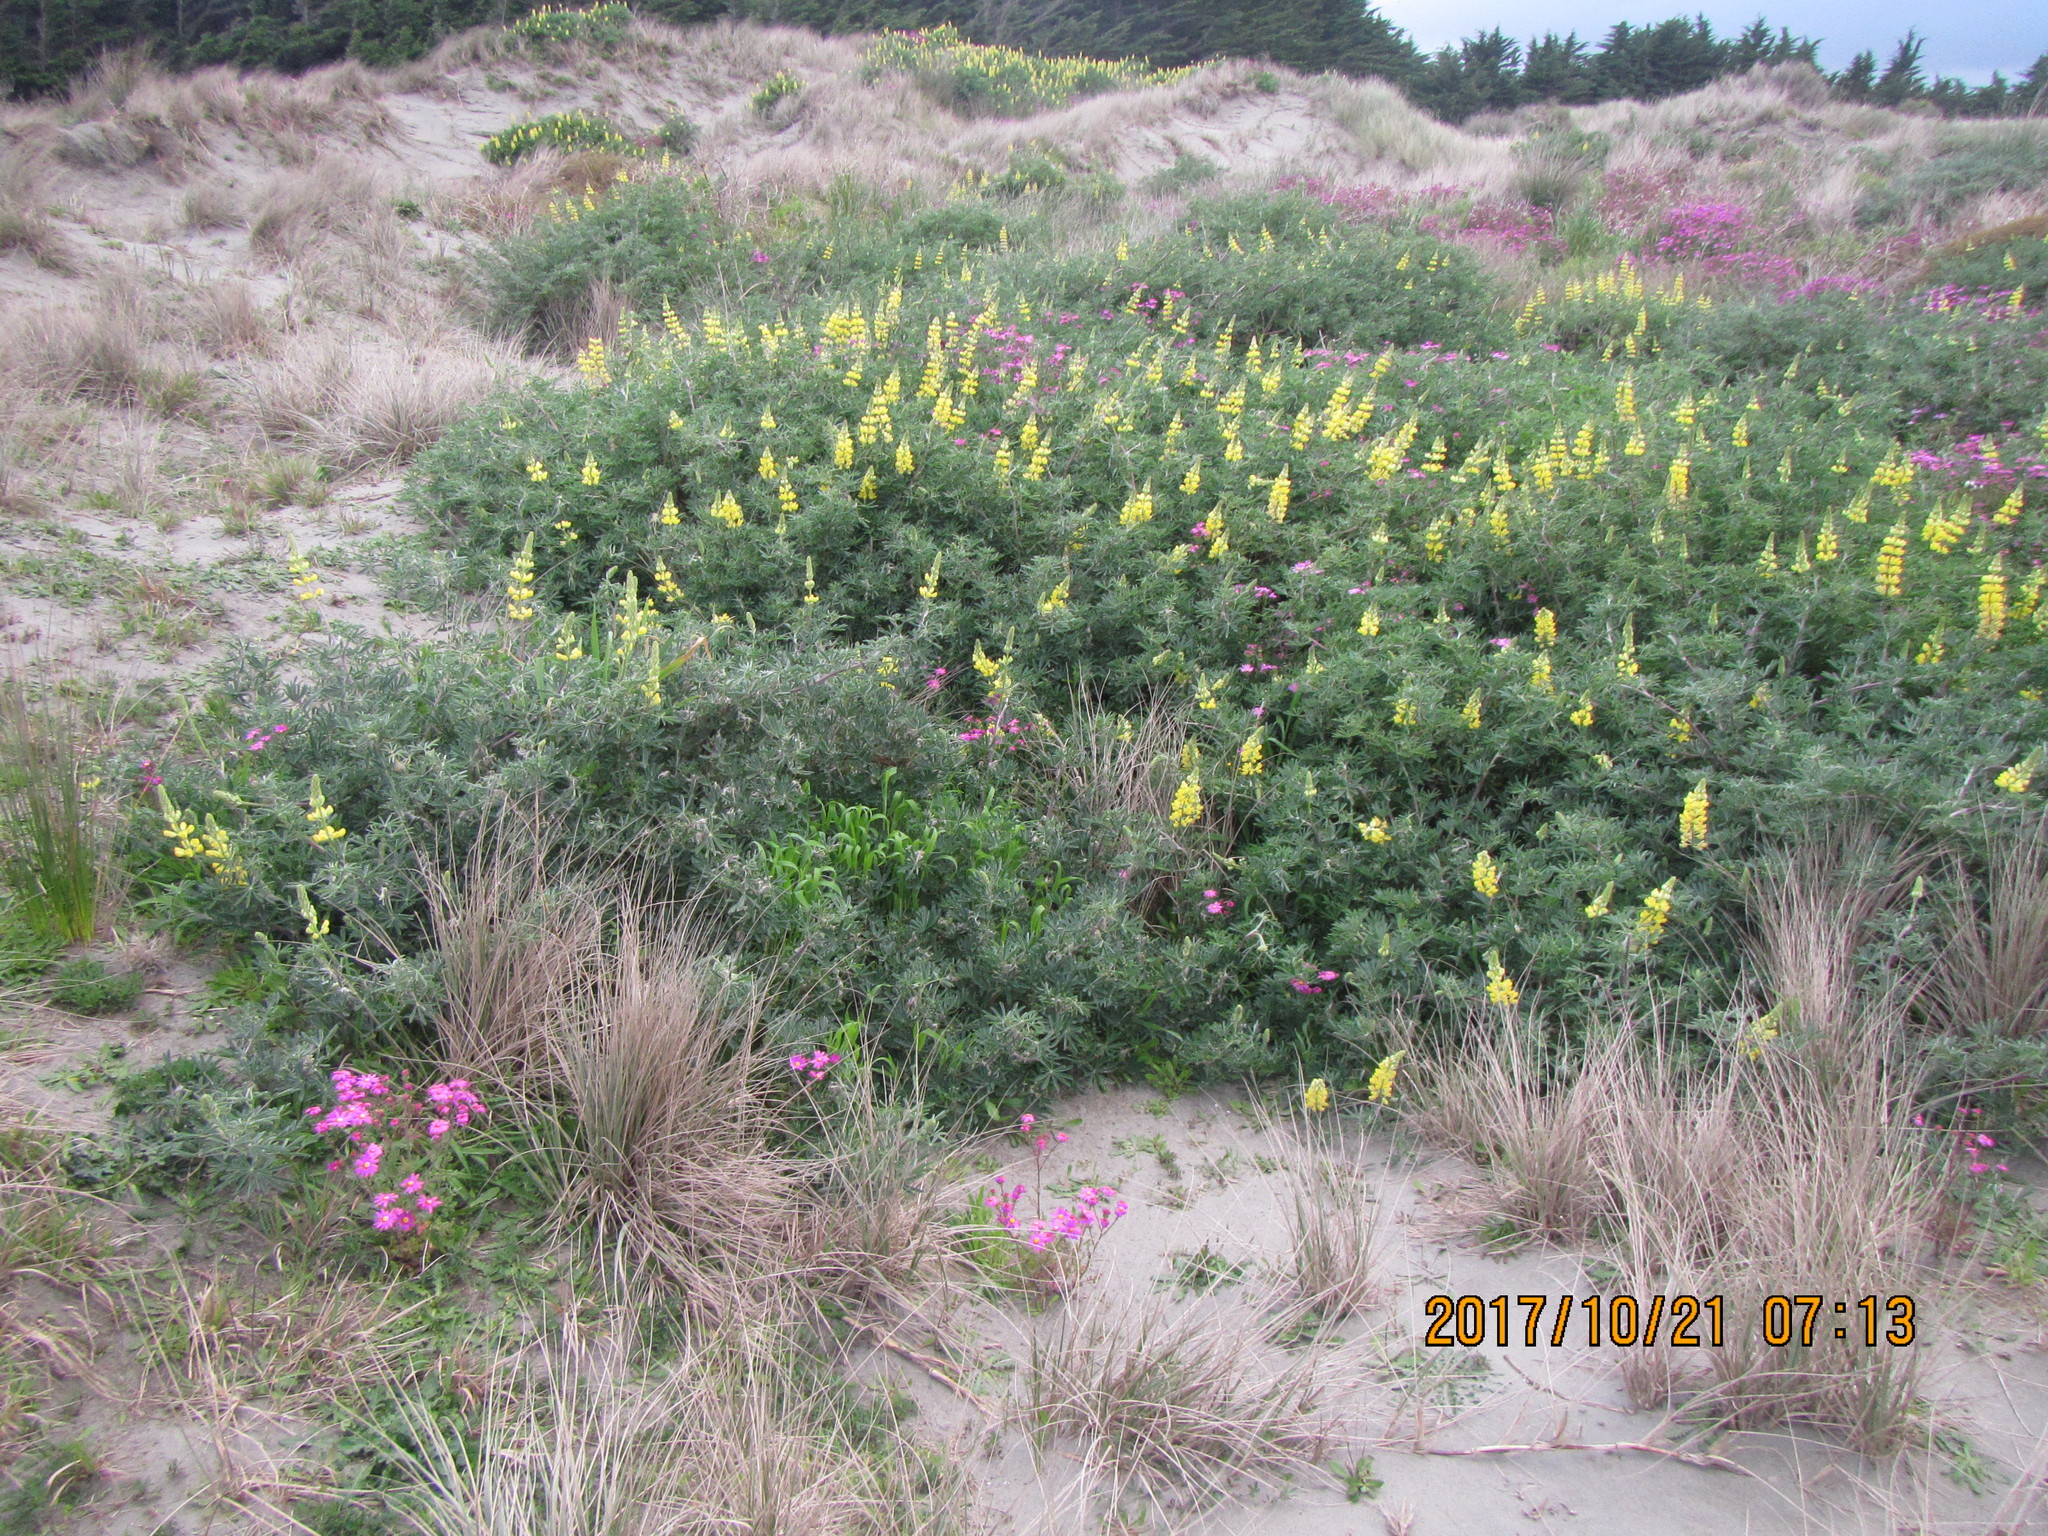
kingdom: Plantae
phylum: Tracheophyta
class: Magnoliopsida
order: Fabales
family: Fabaceae
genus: Lupinus
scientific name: Lupinus arboreus
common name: Yellow bush lupine
